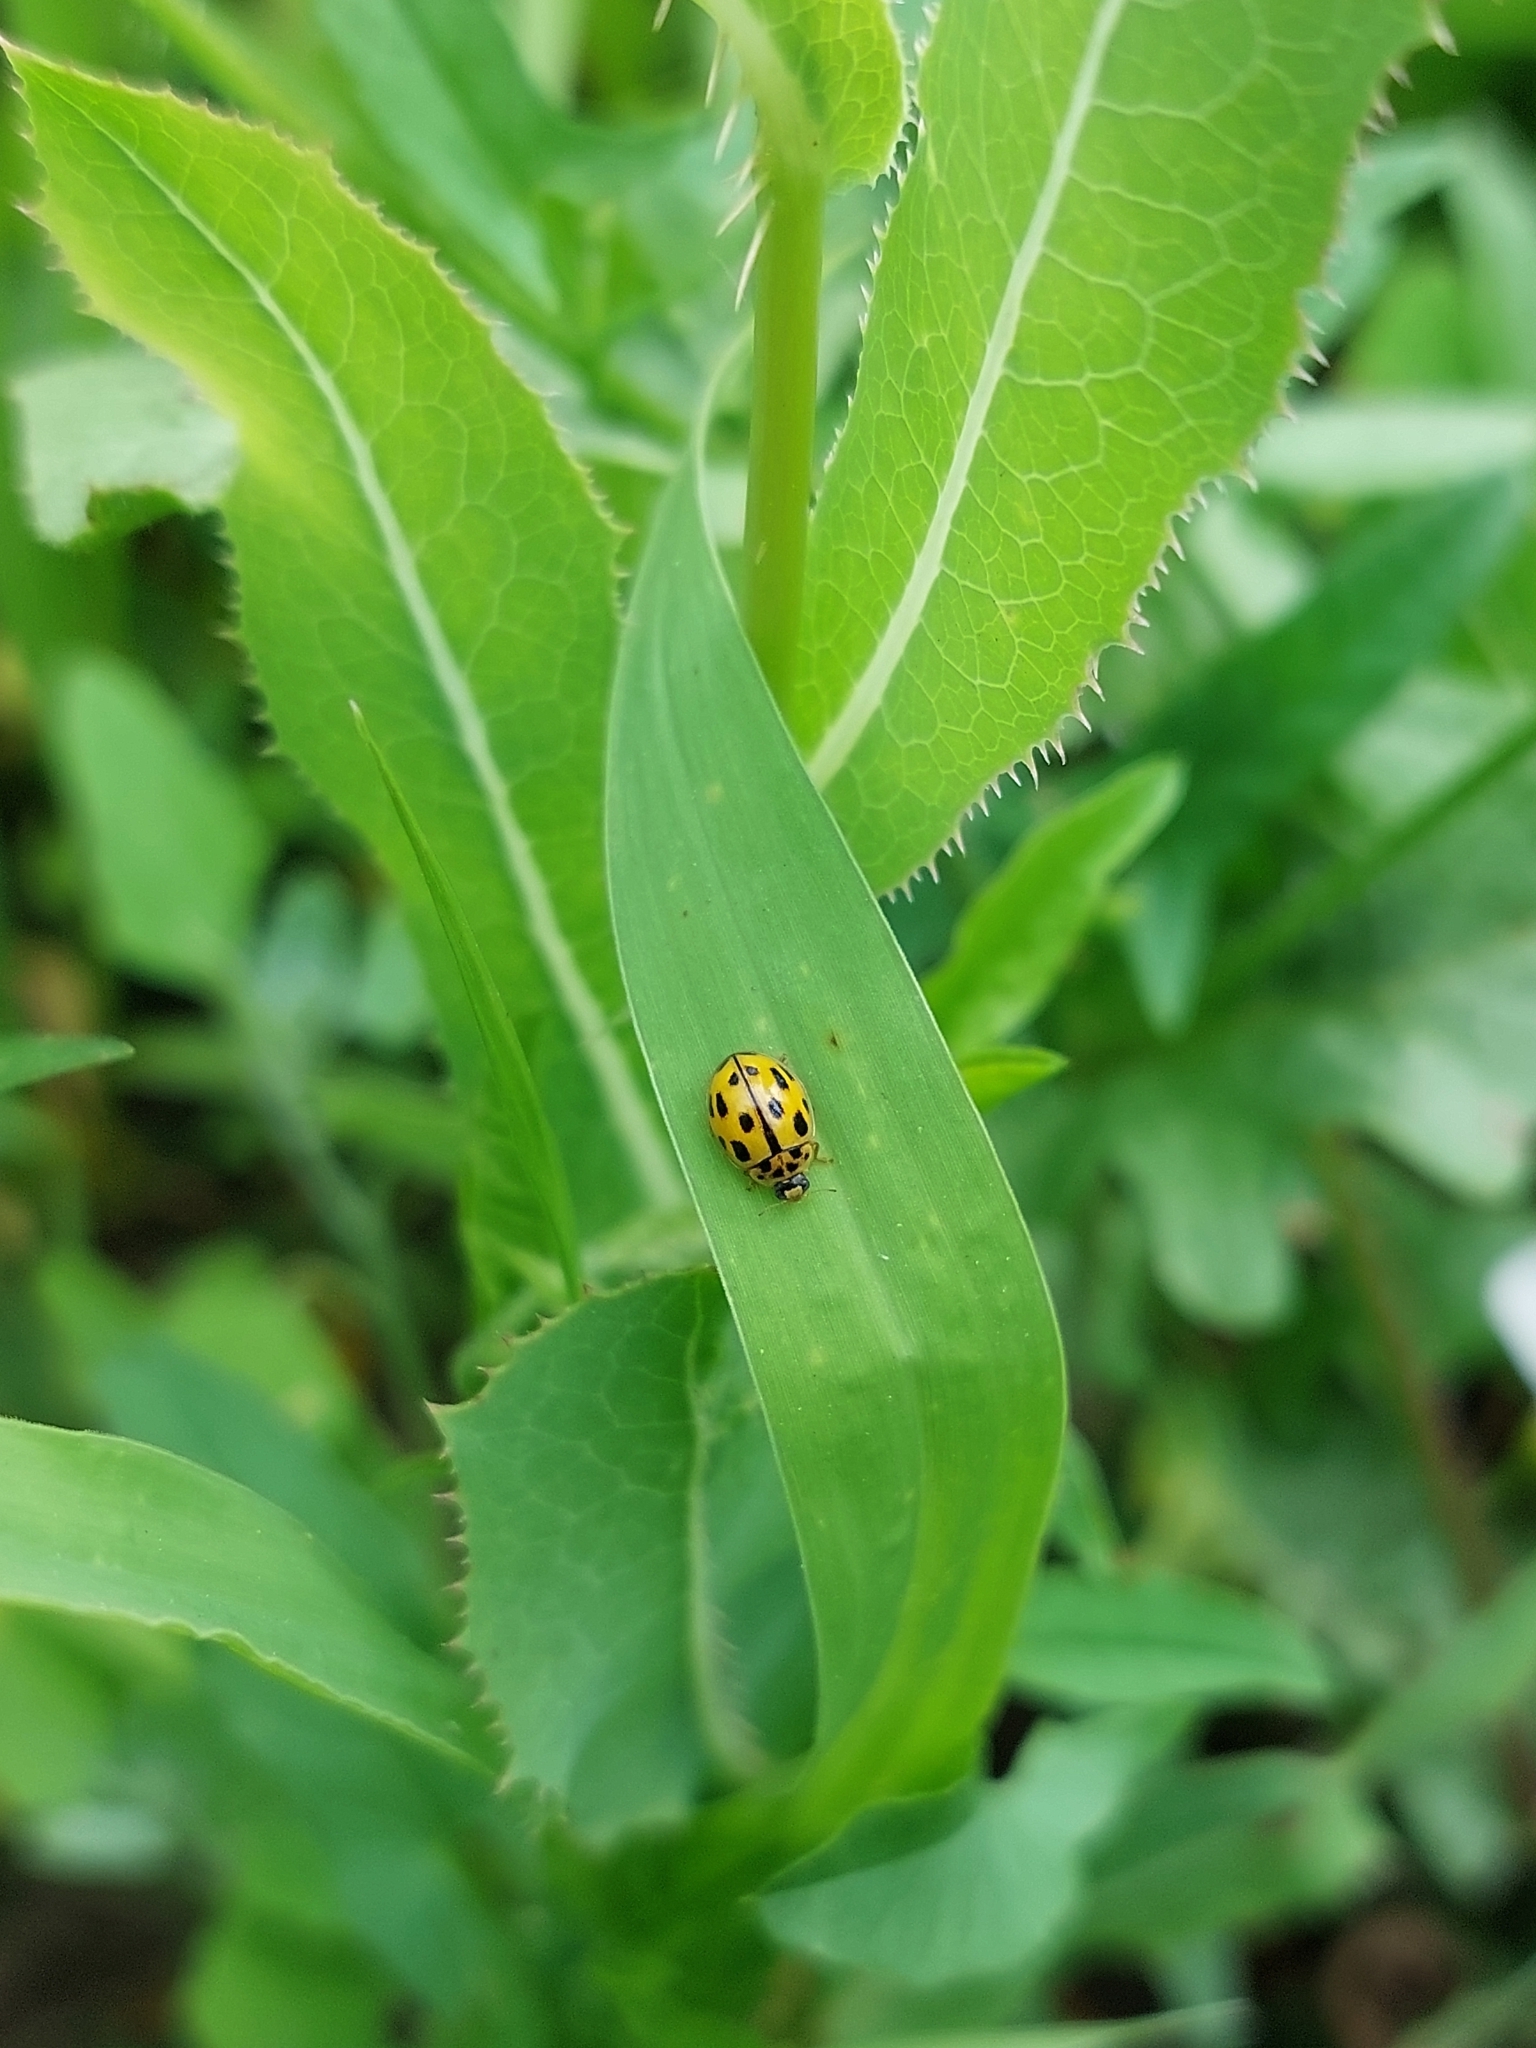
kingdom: Animalia
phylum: Arthropoda
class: Insecta
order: Coleoptera
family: Coccinellidae
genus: Propylaea
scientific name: Propylaea quatuordecimpunctata
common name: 14-spotted ladybird beetle
